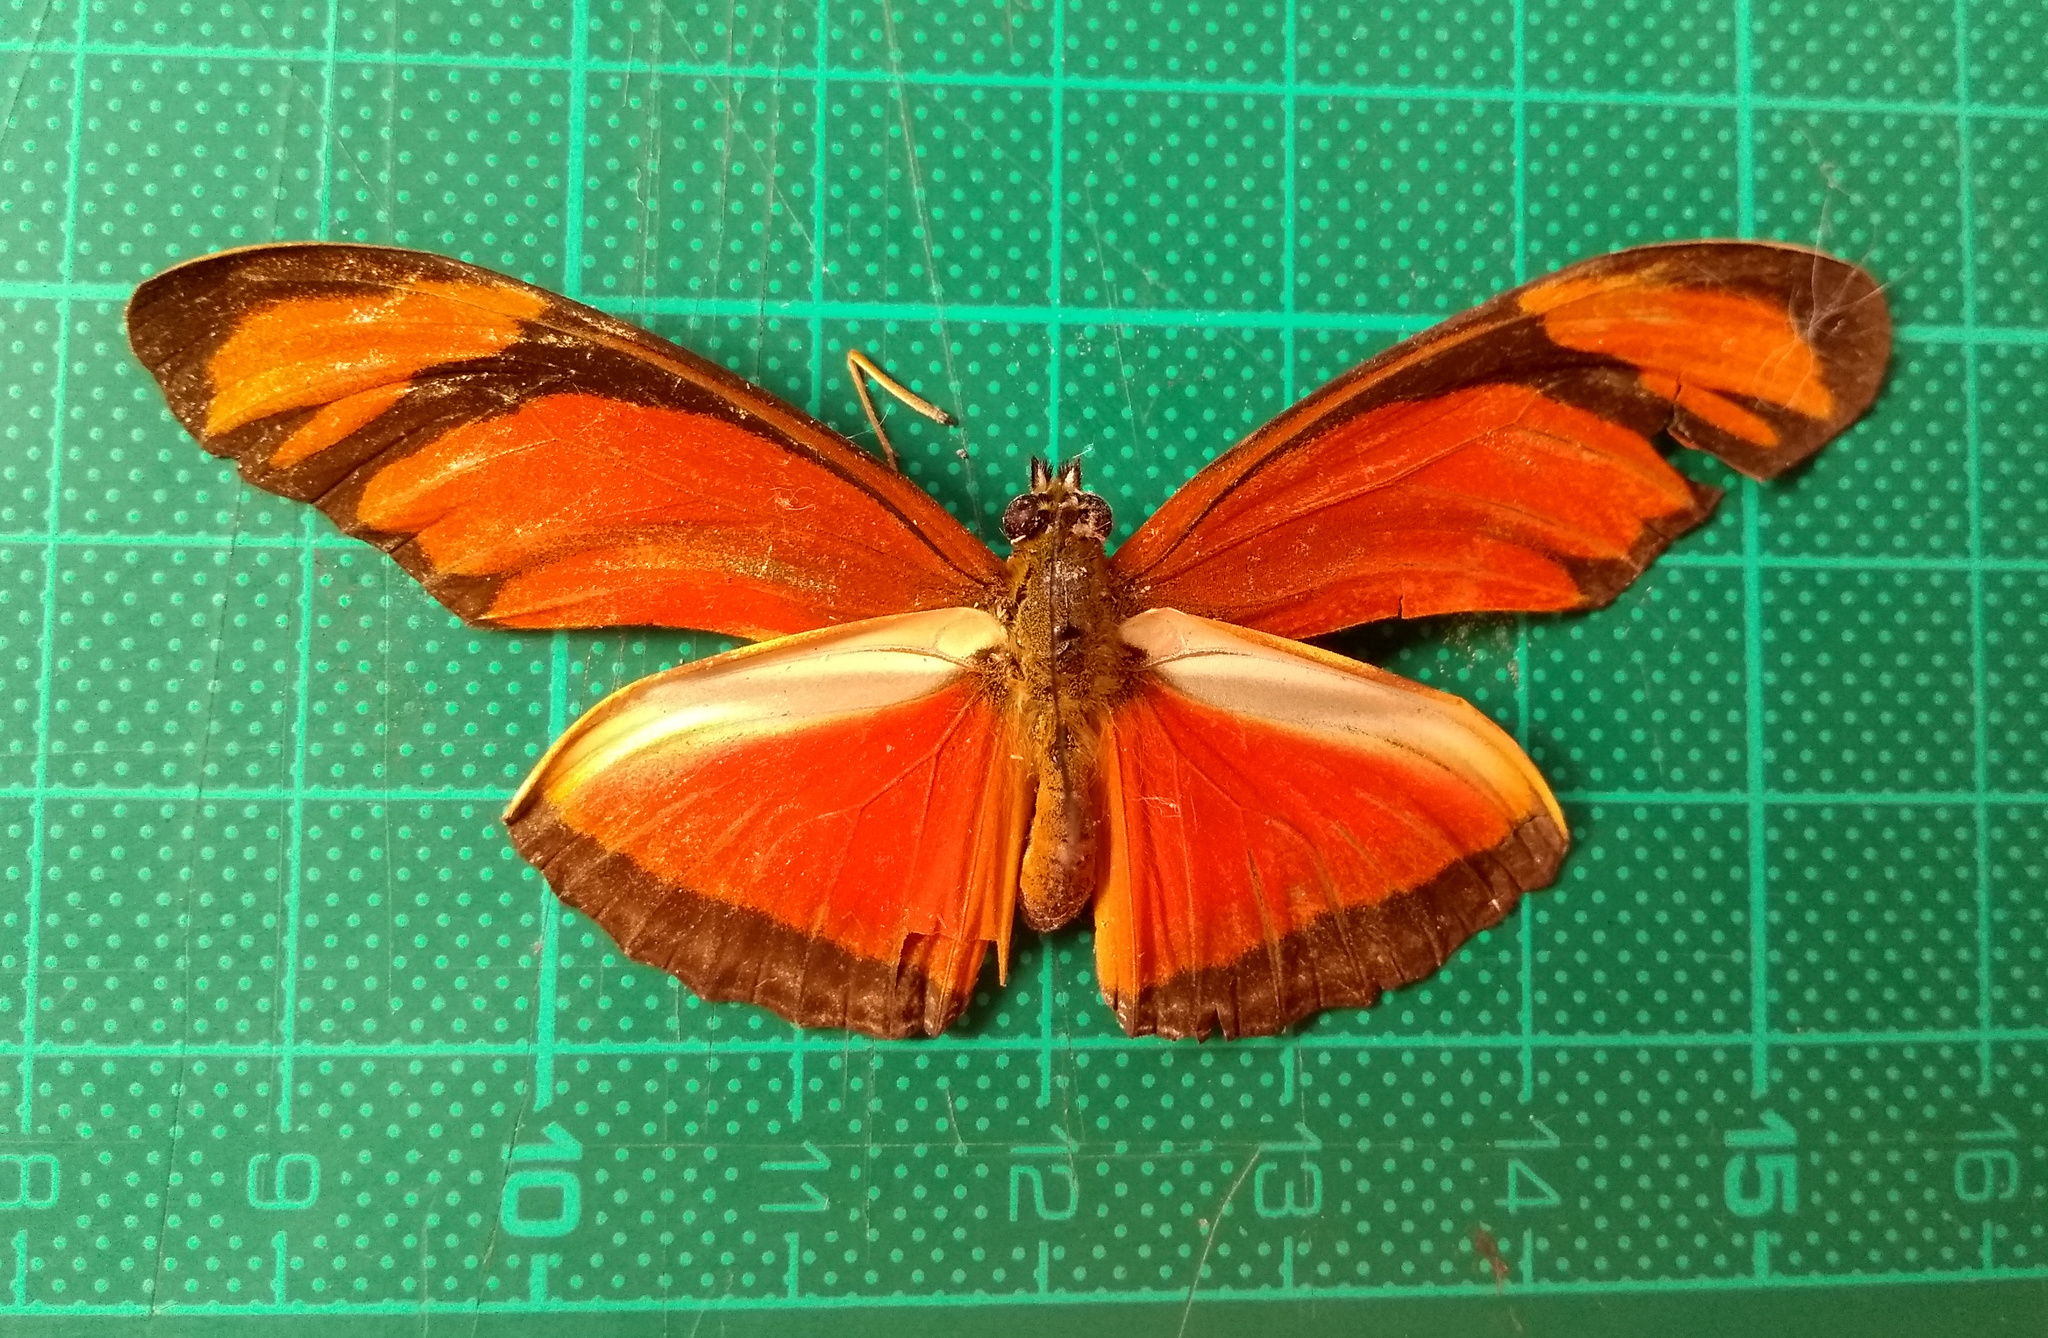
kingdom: Animalia
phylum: Arthropoda
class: Insecta
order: Lepidoptera
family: Nymphalidae
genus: Dryas
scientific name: Dryas iulia
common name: Flambeau
